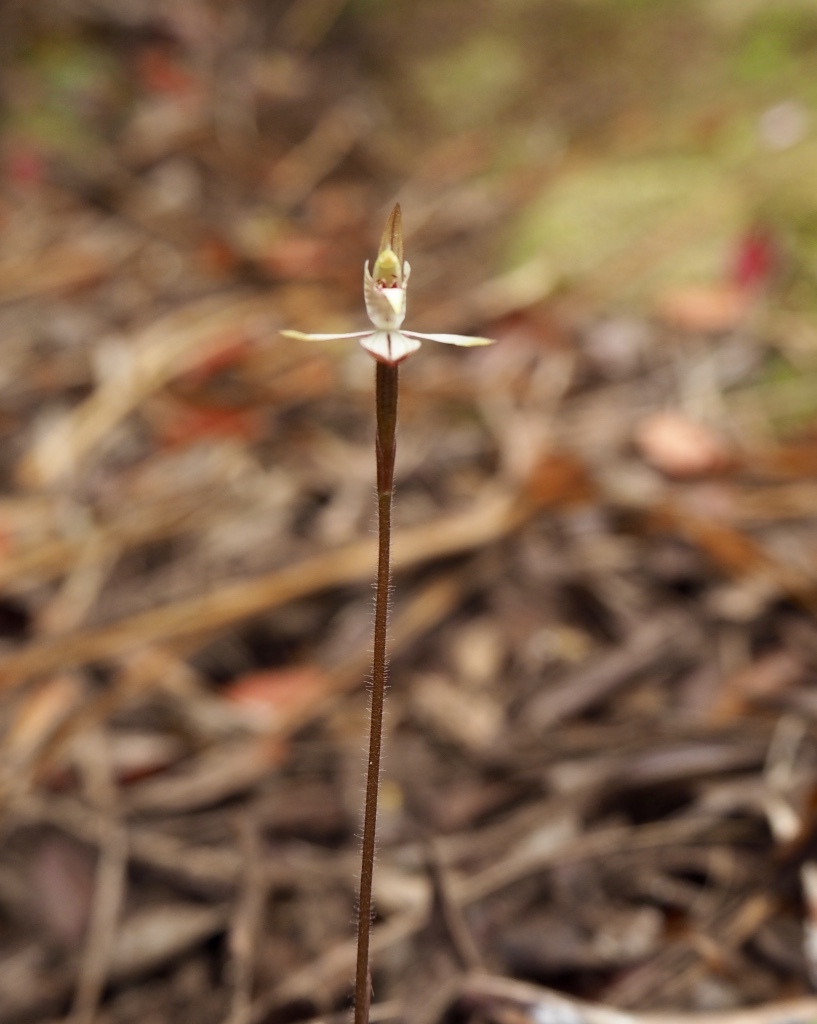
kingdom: Plantae
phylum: Tracheophyta
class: Liliopsida
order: Asparagales
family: Orchidaceae
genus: Caladenia
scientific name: Caladenia chlorostyla
